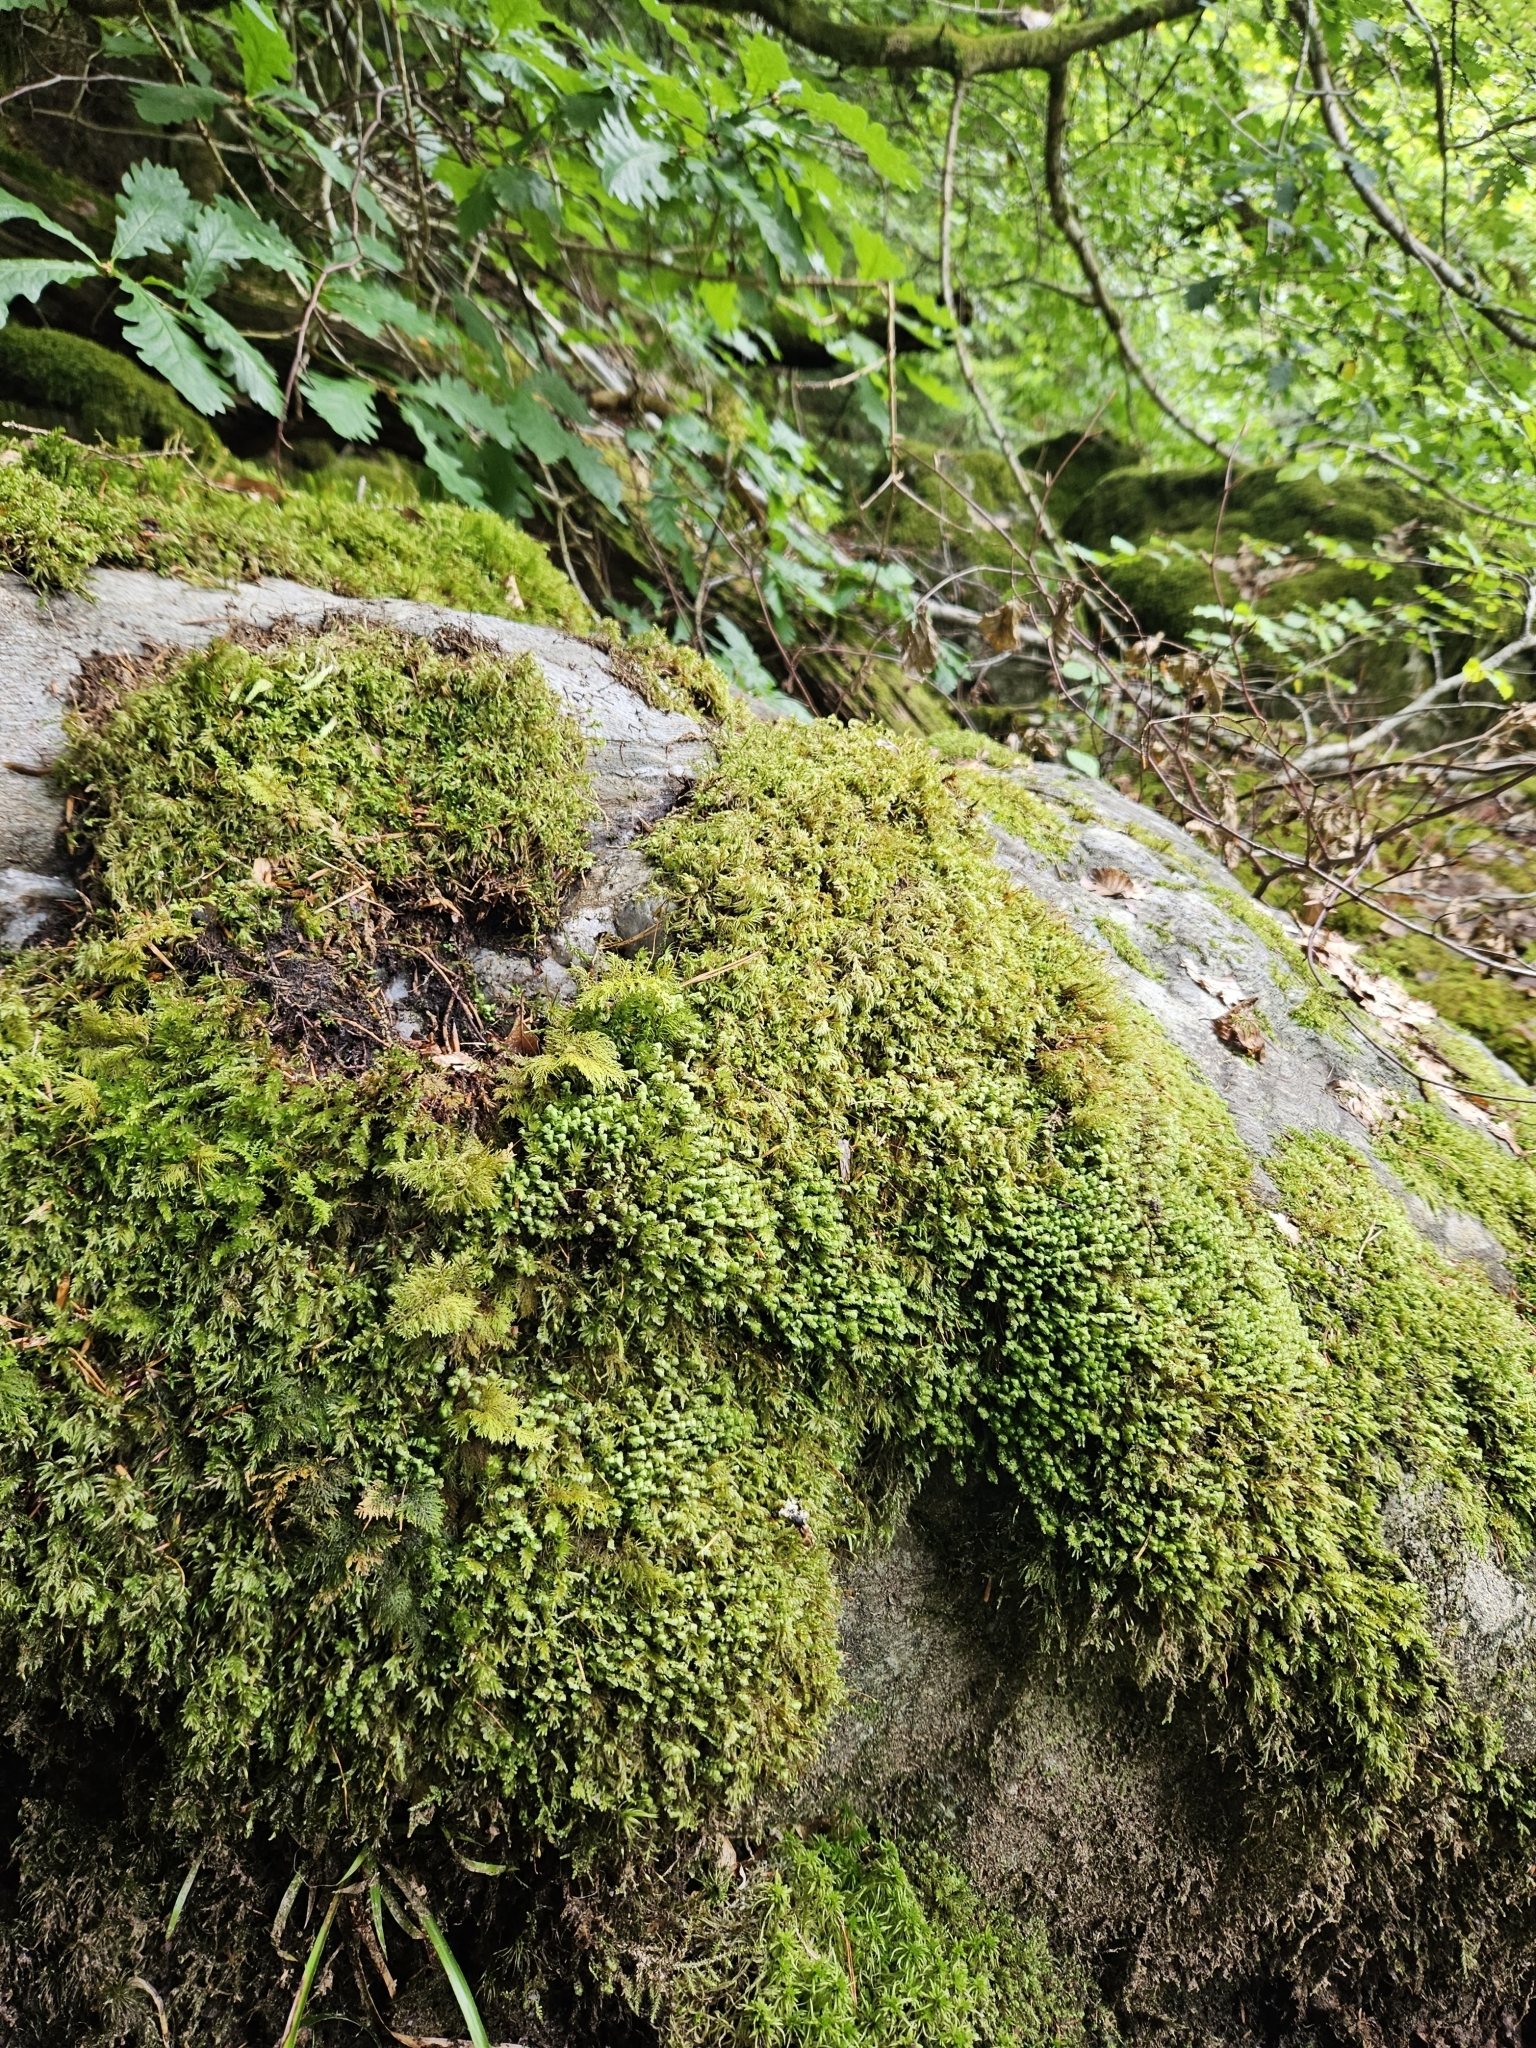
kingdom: Plantae
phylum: Marchantiophyta
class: Jungermanniopsida
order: Jungermanniales
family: Scapaniaceae
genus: Scapania
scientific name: Scapania nemorea
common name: Grove earwort
